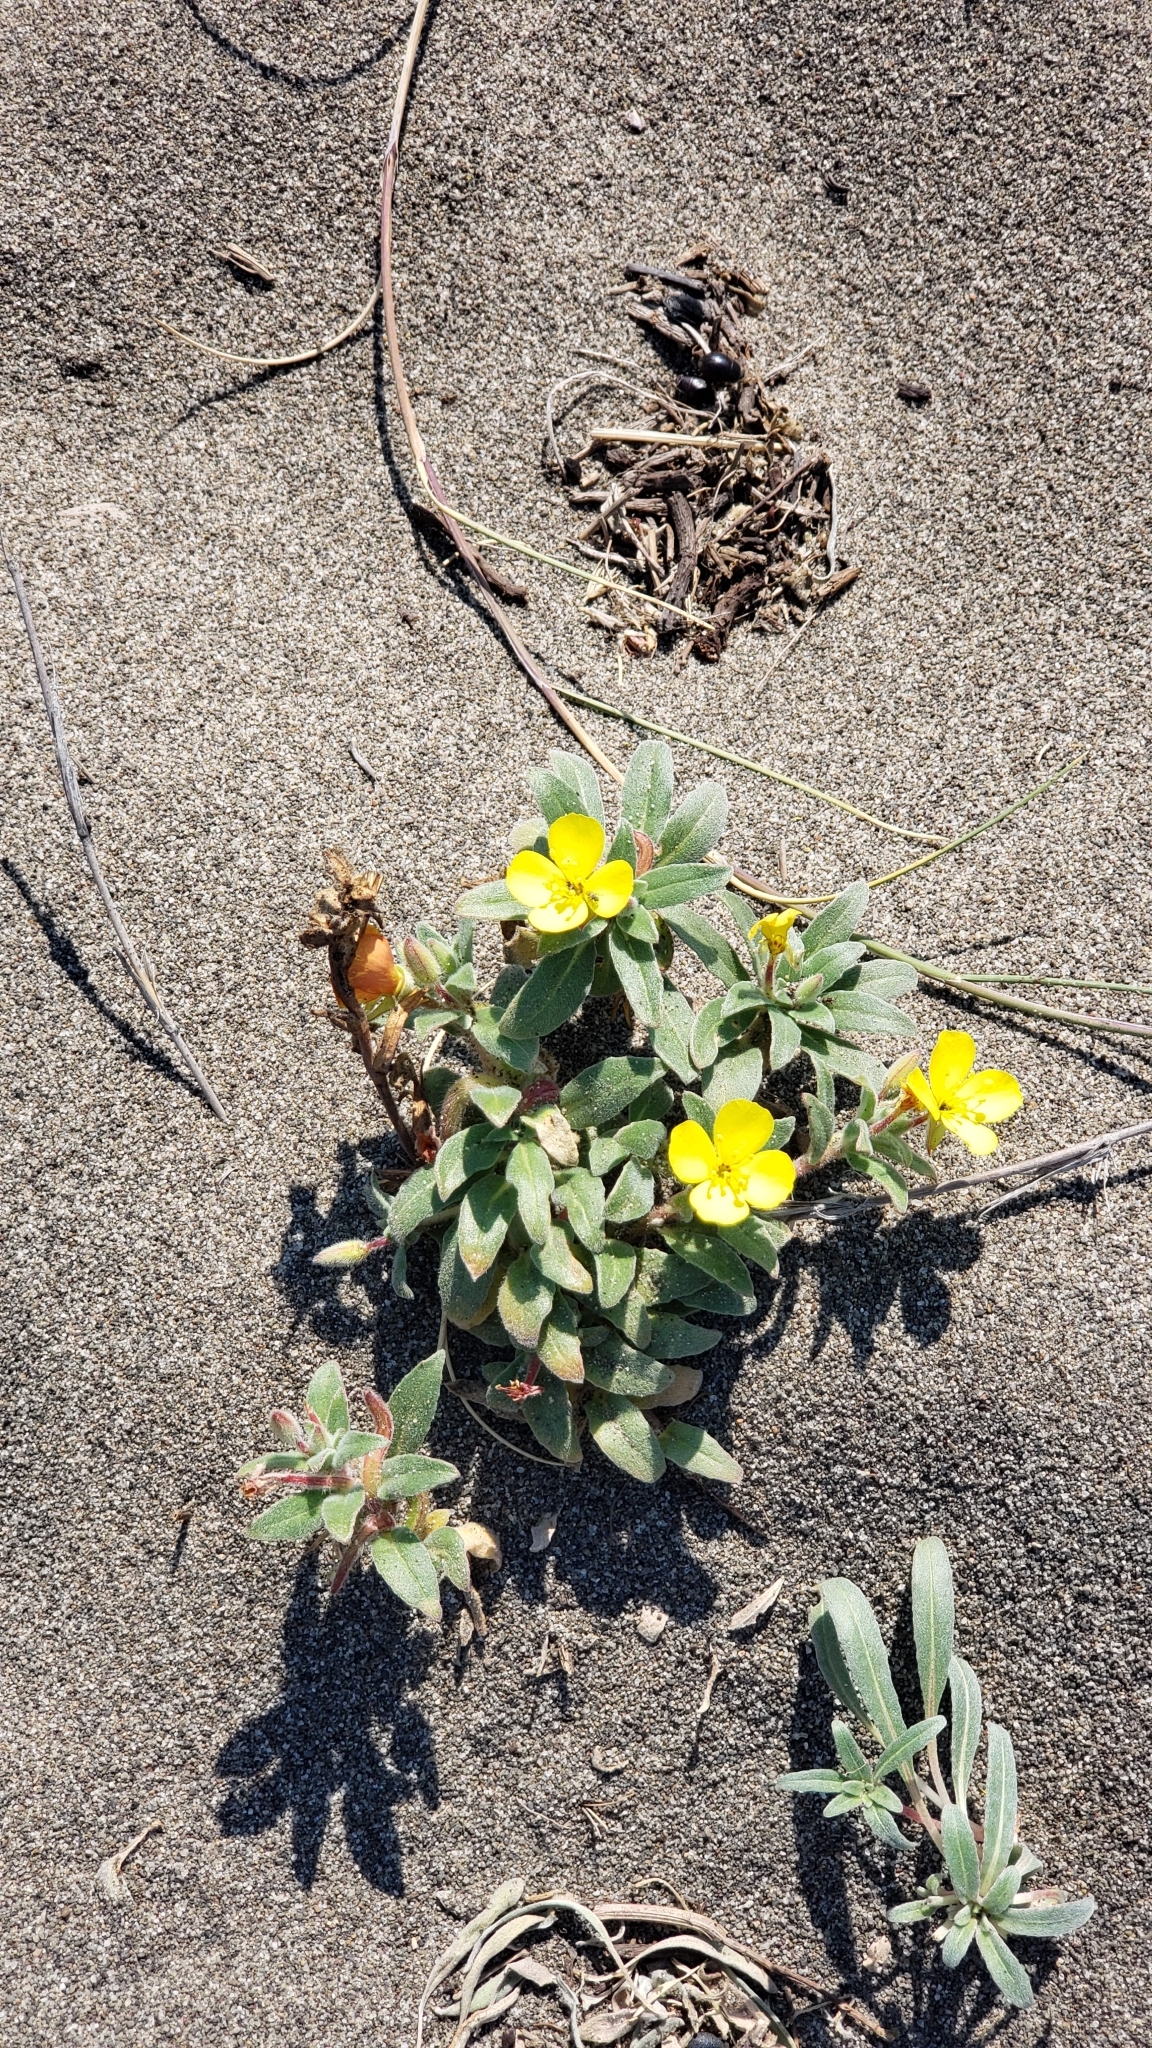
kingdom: Plantae
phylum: Tracheophyta
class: Magnoliopsida
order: Myrtales
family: Onagraceae
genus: Camissoniopsis
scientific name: Camissoniopsis cheiranthifolia
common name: Beach suncup
